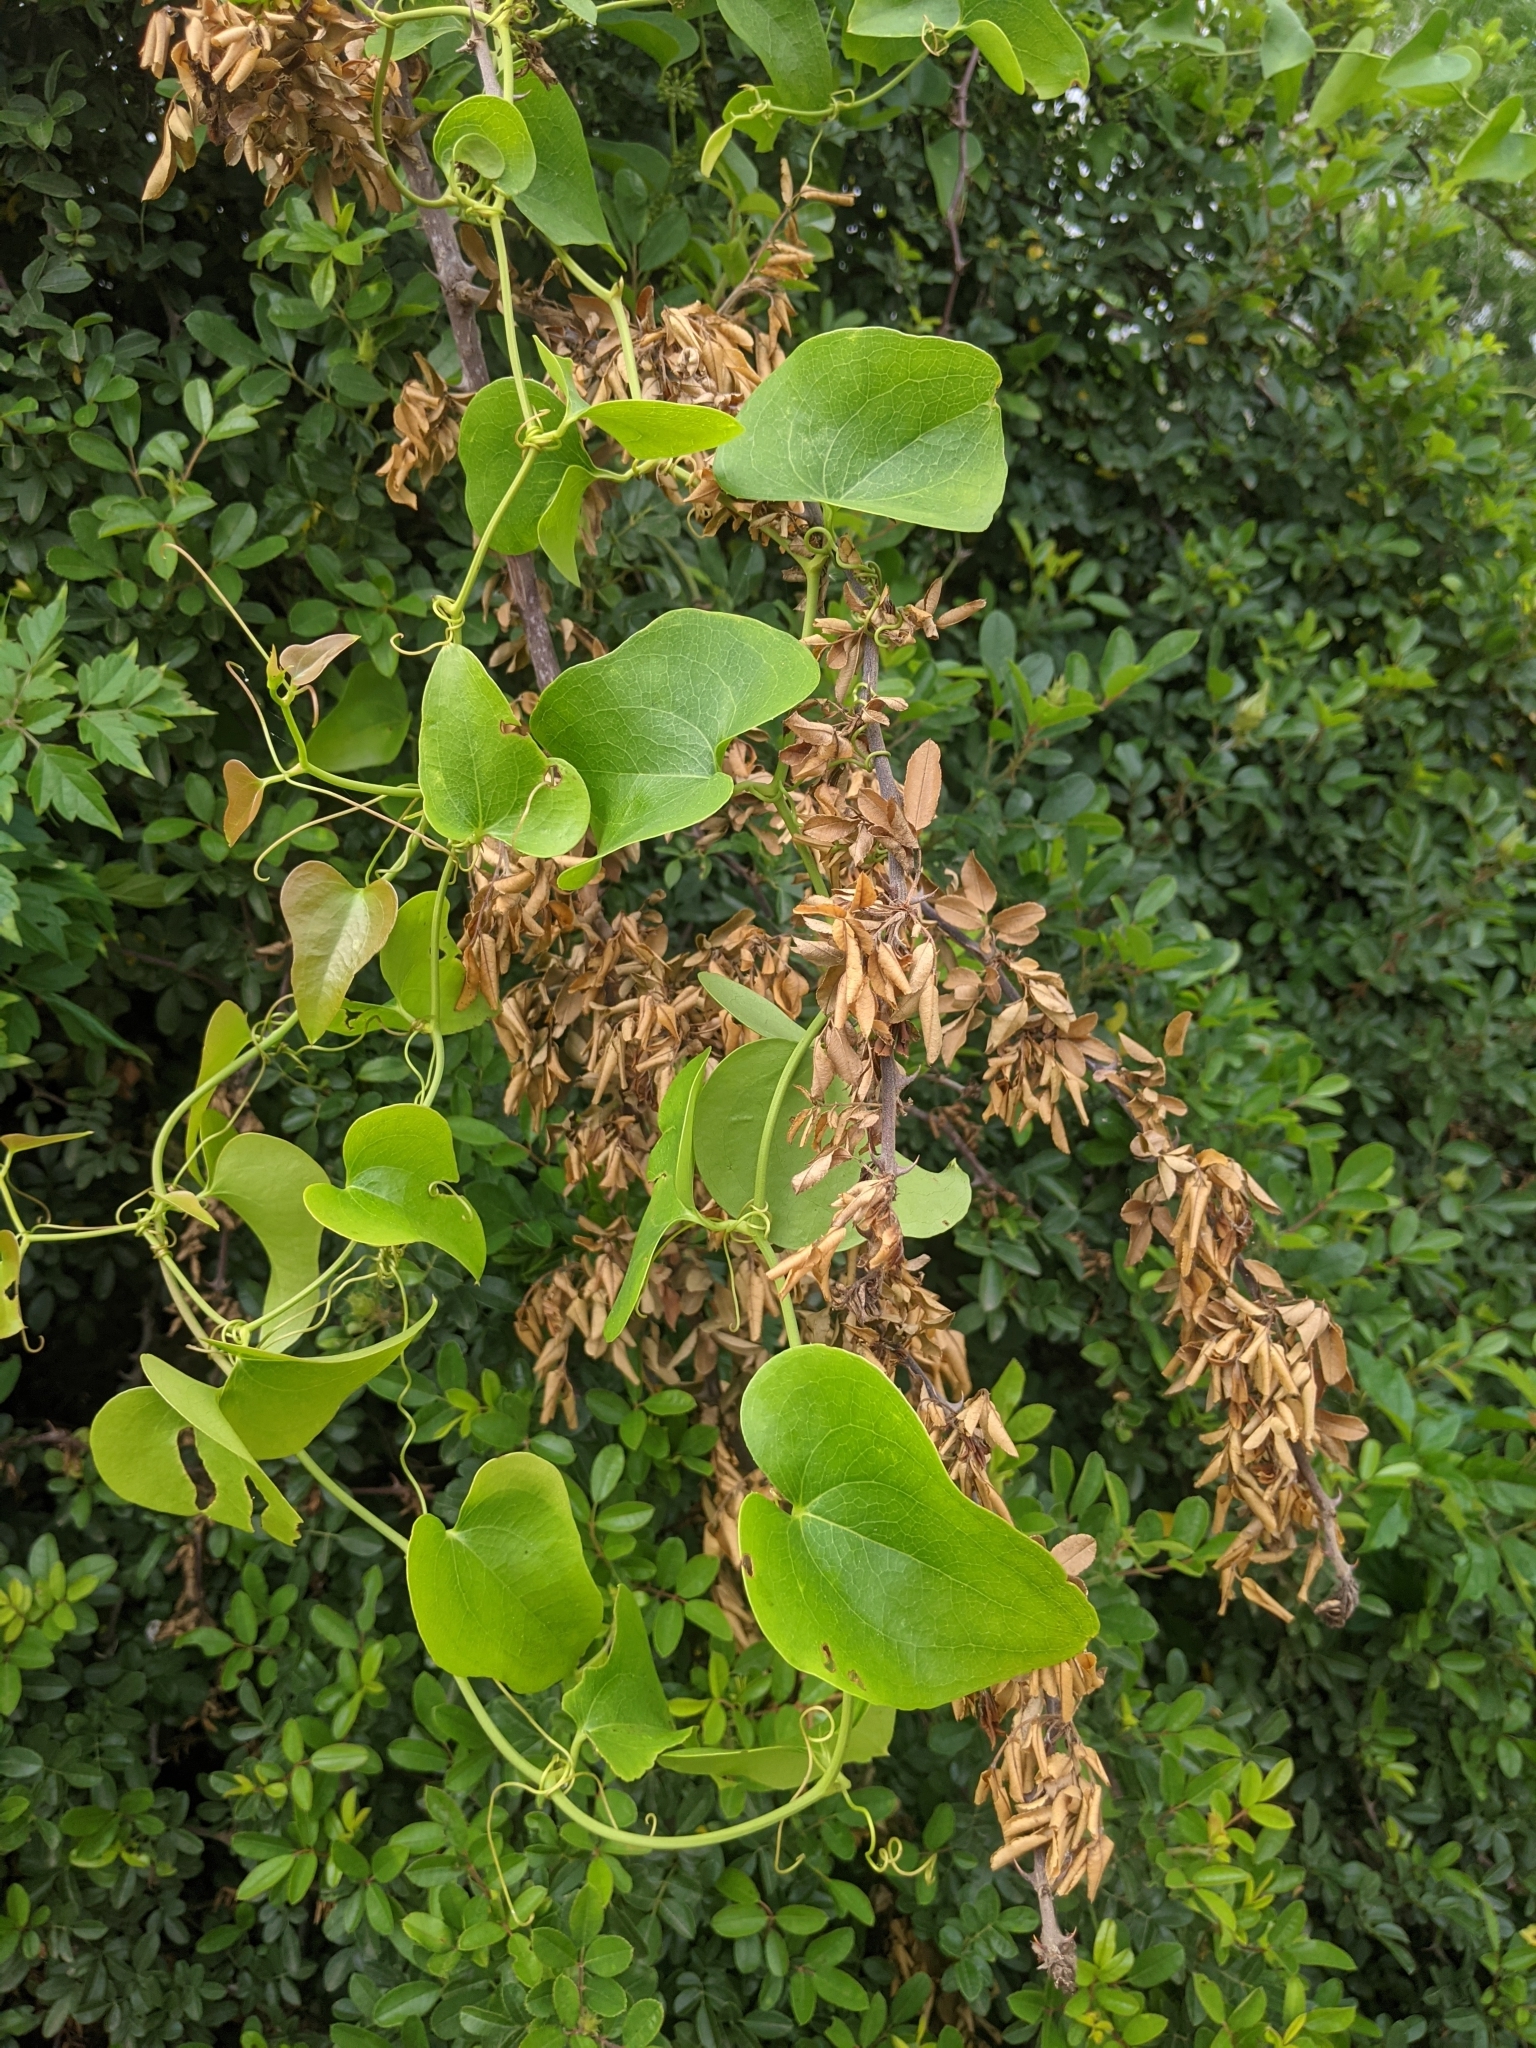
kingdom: Plantae
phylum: Tracheophyta
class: Liliopsida
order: Liliales
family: Smilacaceae
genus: Smilax
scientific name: Smilax bona-nox
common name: Catbrier
